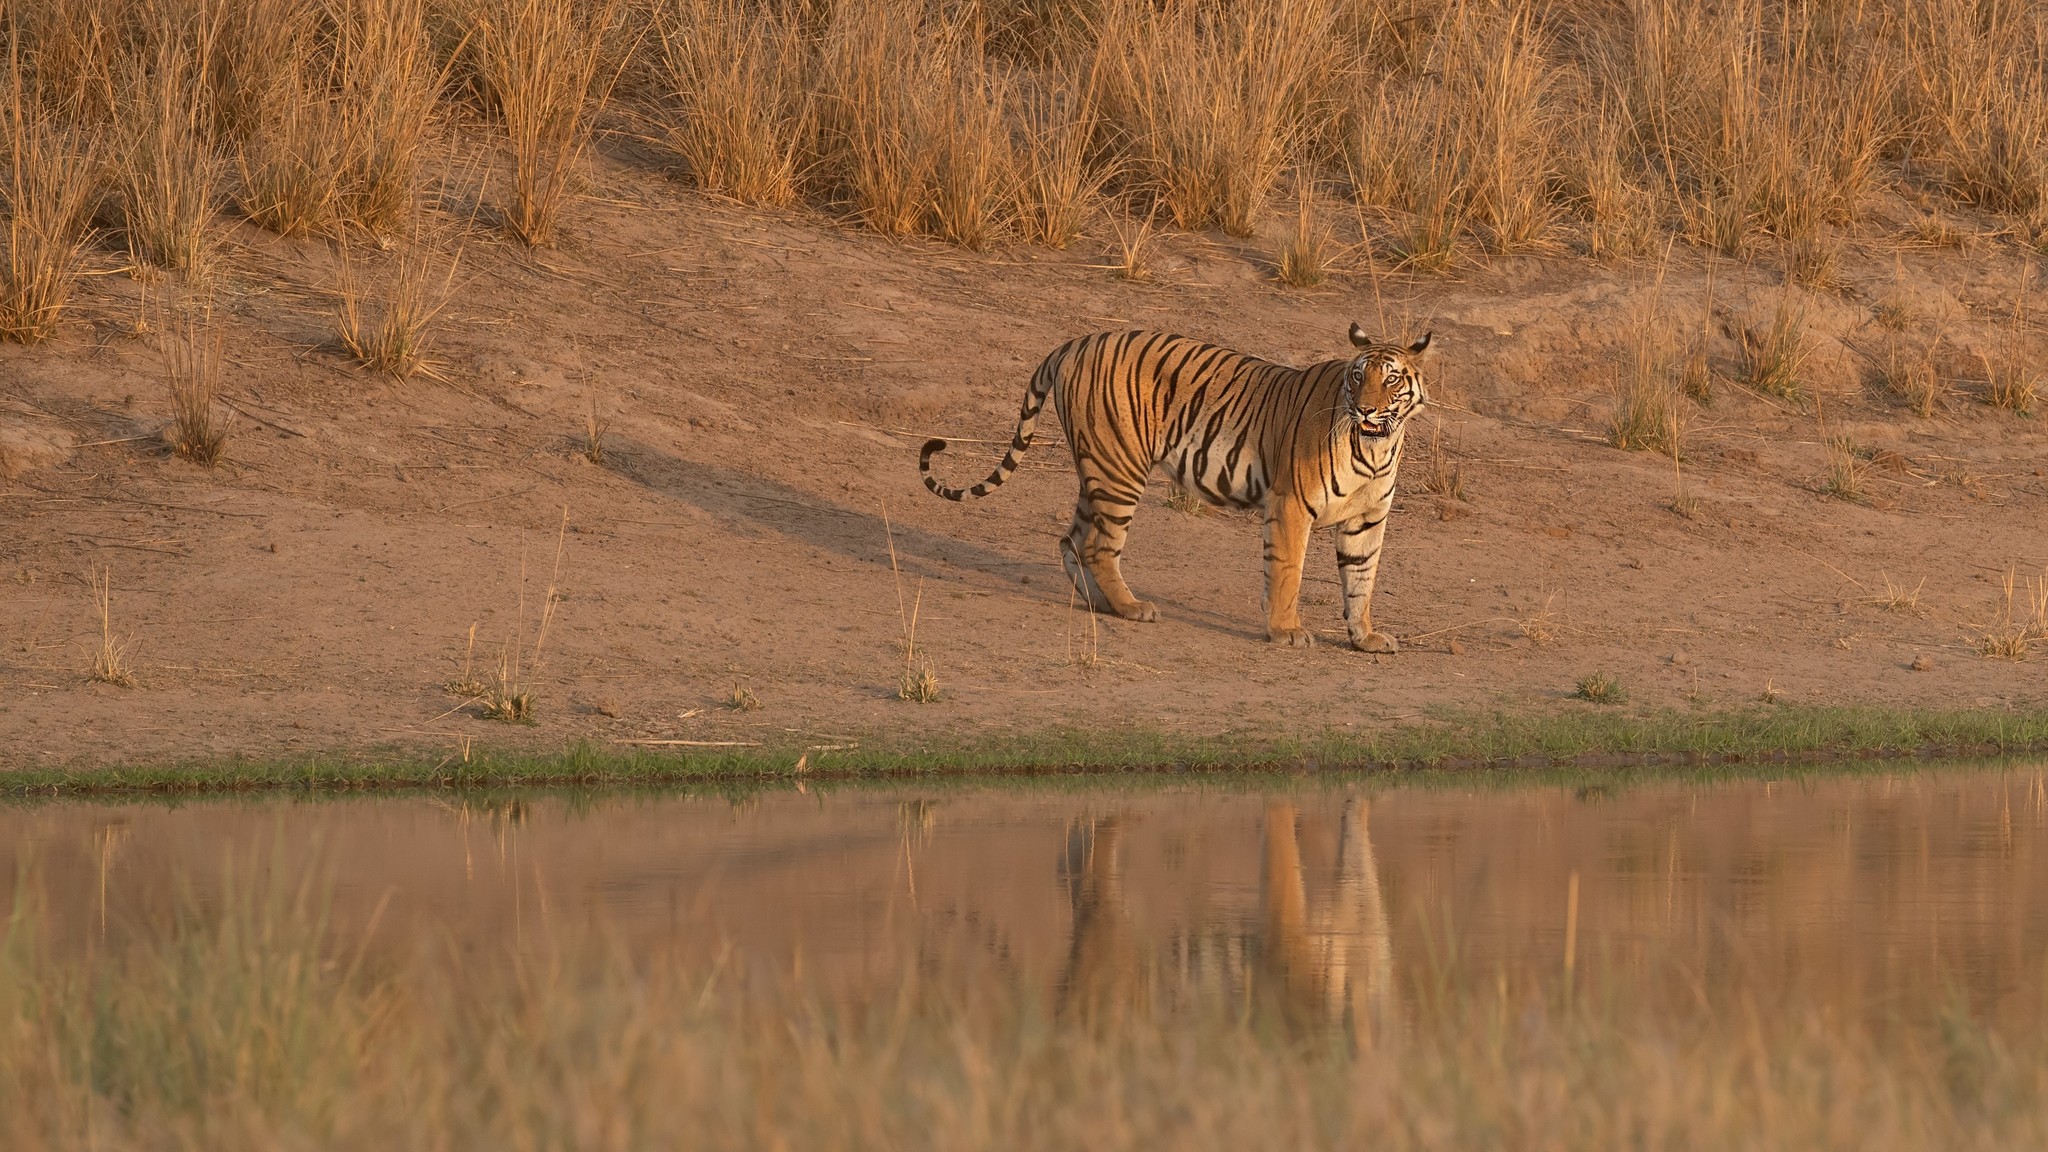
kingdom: Animalia
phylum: Chordata
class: Mammalia
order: Carnivora
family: Felidae
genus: Panthera
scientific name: Panthera tigris
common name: Tiger
